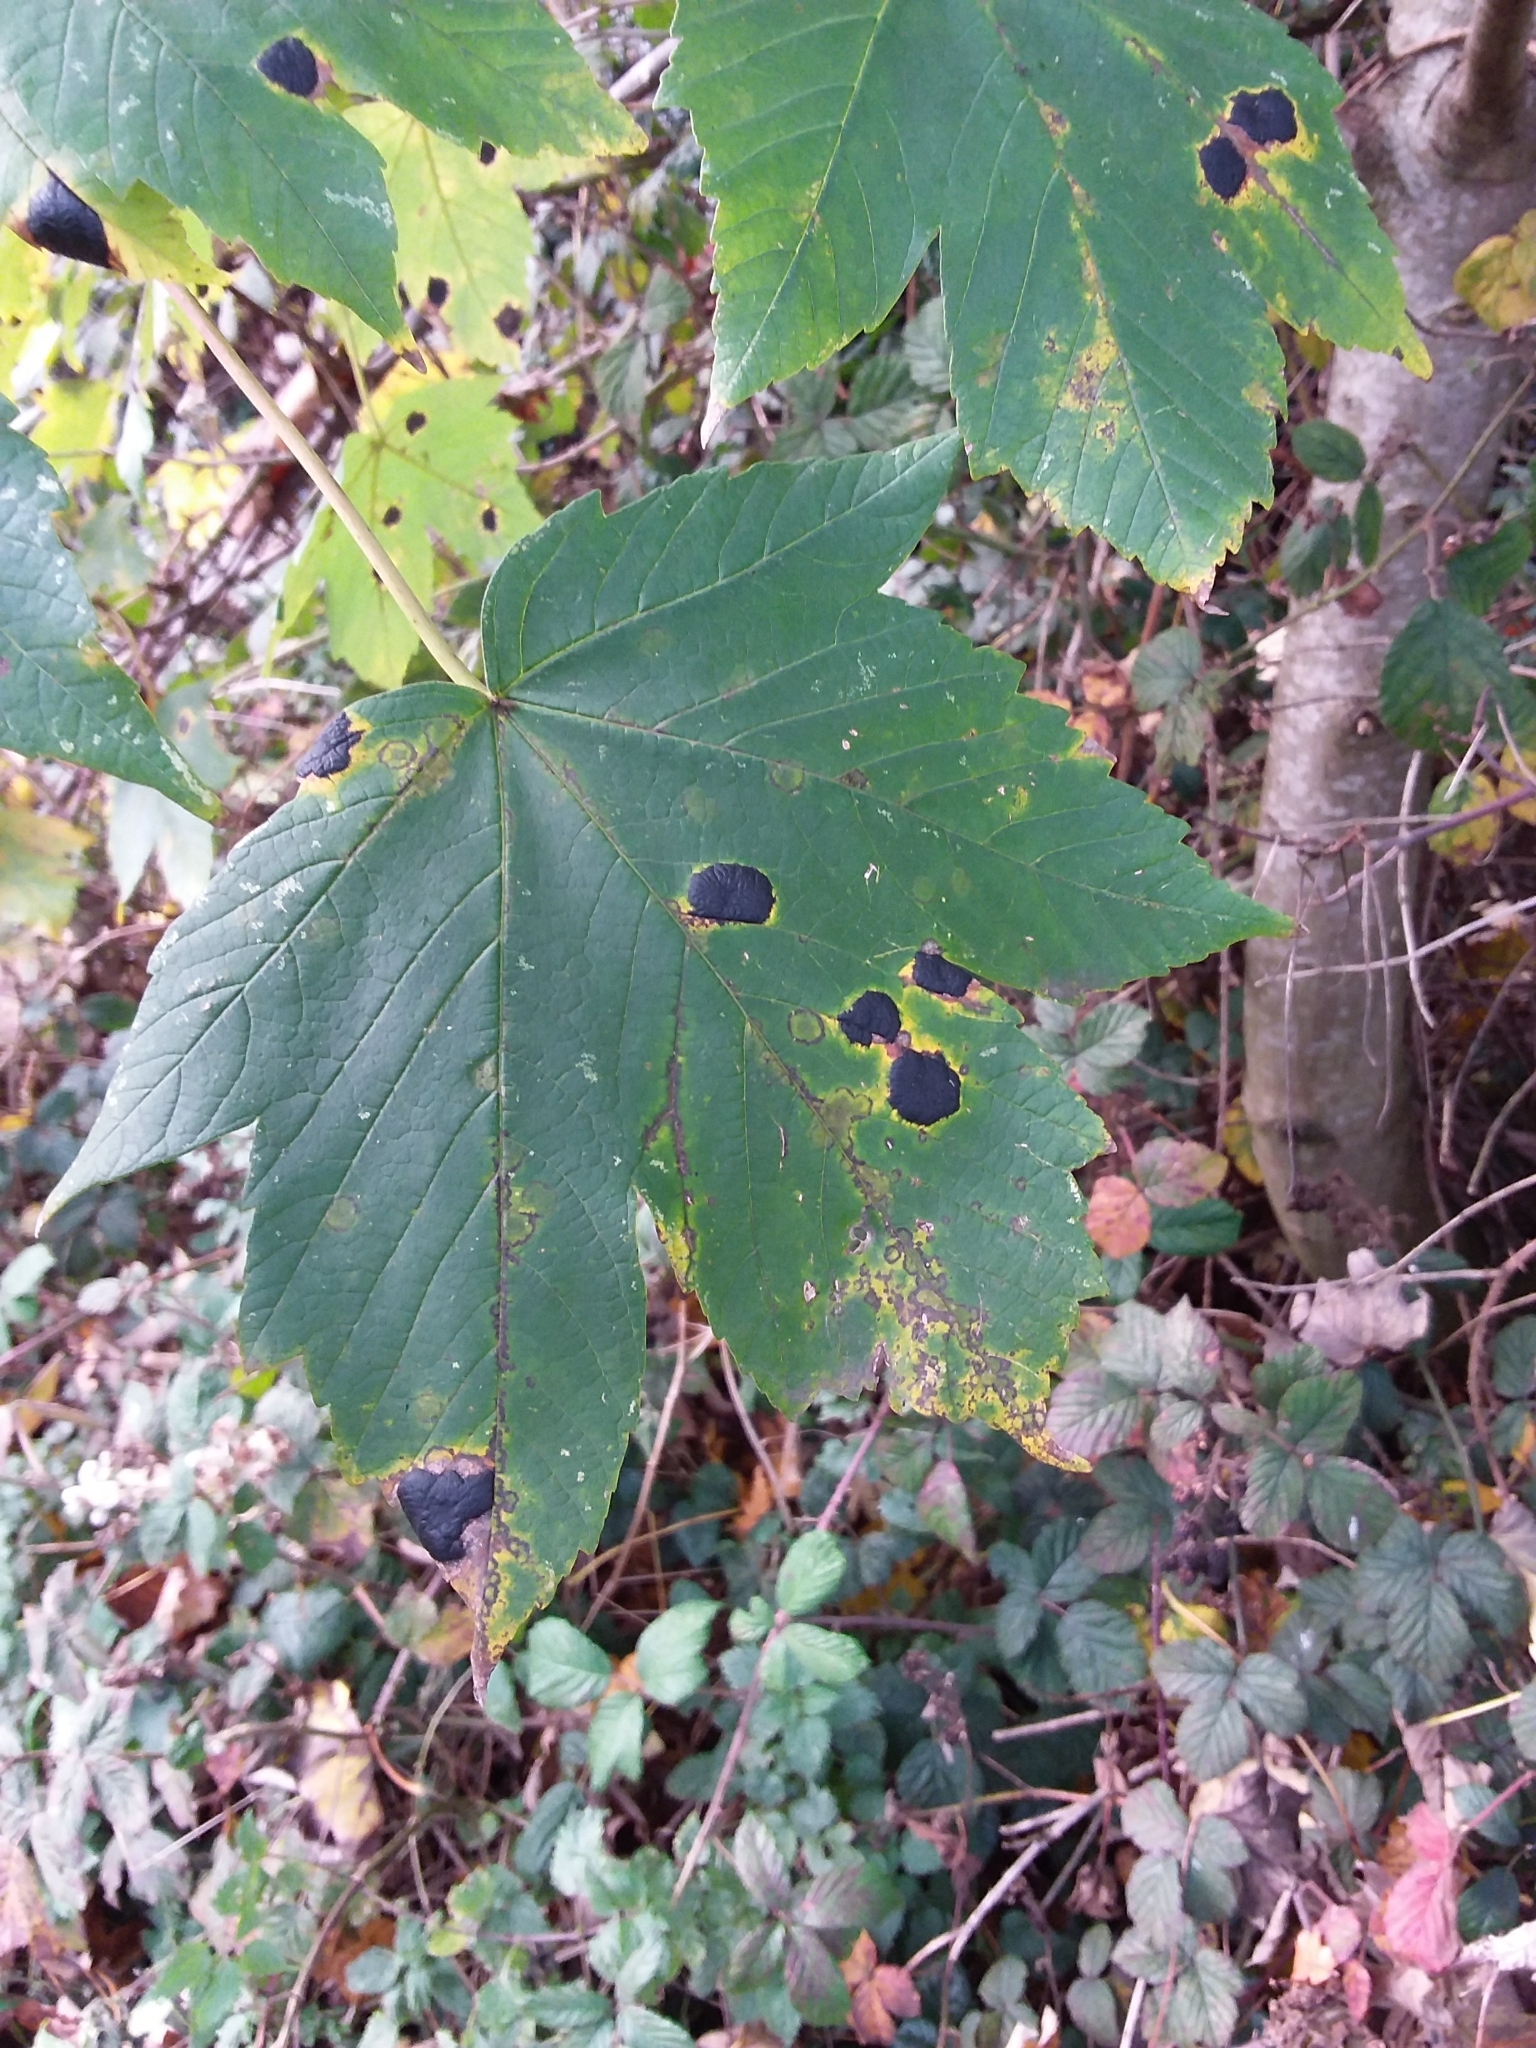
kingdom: Fungi
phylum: Ascomycota
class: Leotiomycetes
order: Rhytismatales
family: Rhytismataceae
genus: Rhytisma
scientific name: Rhytisma acerinum
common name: European tar spot
